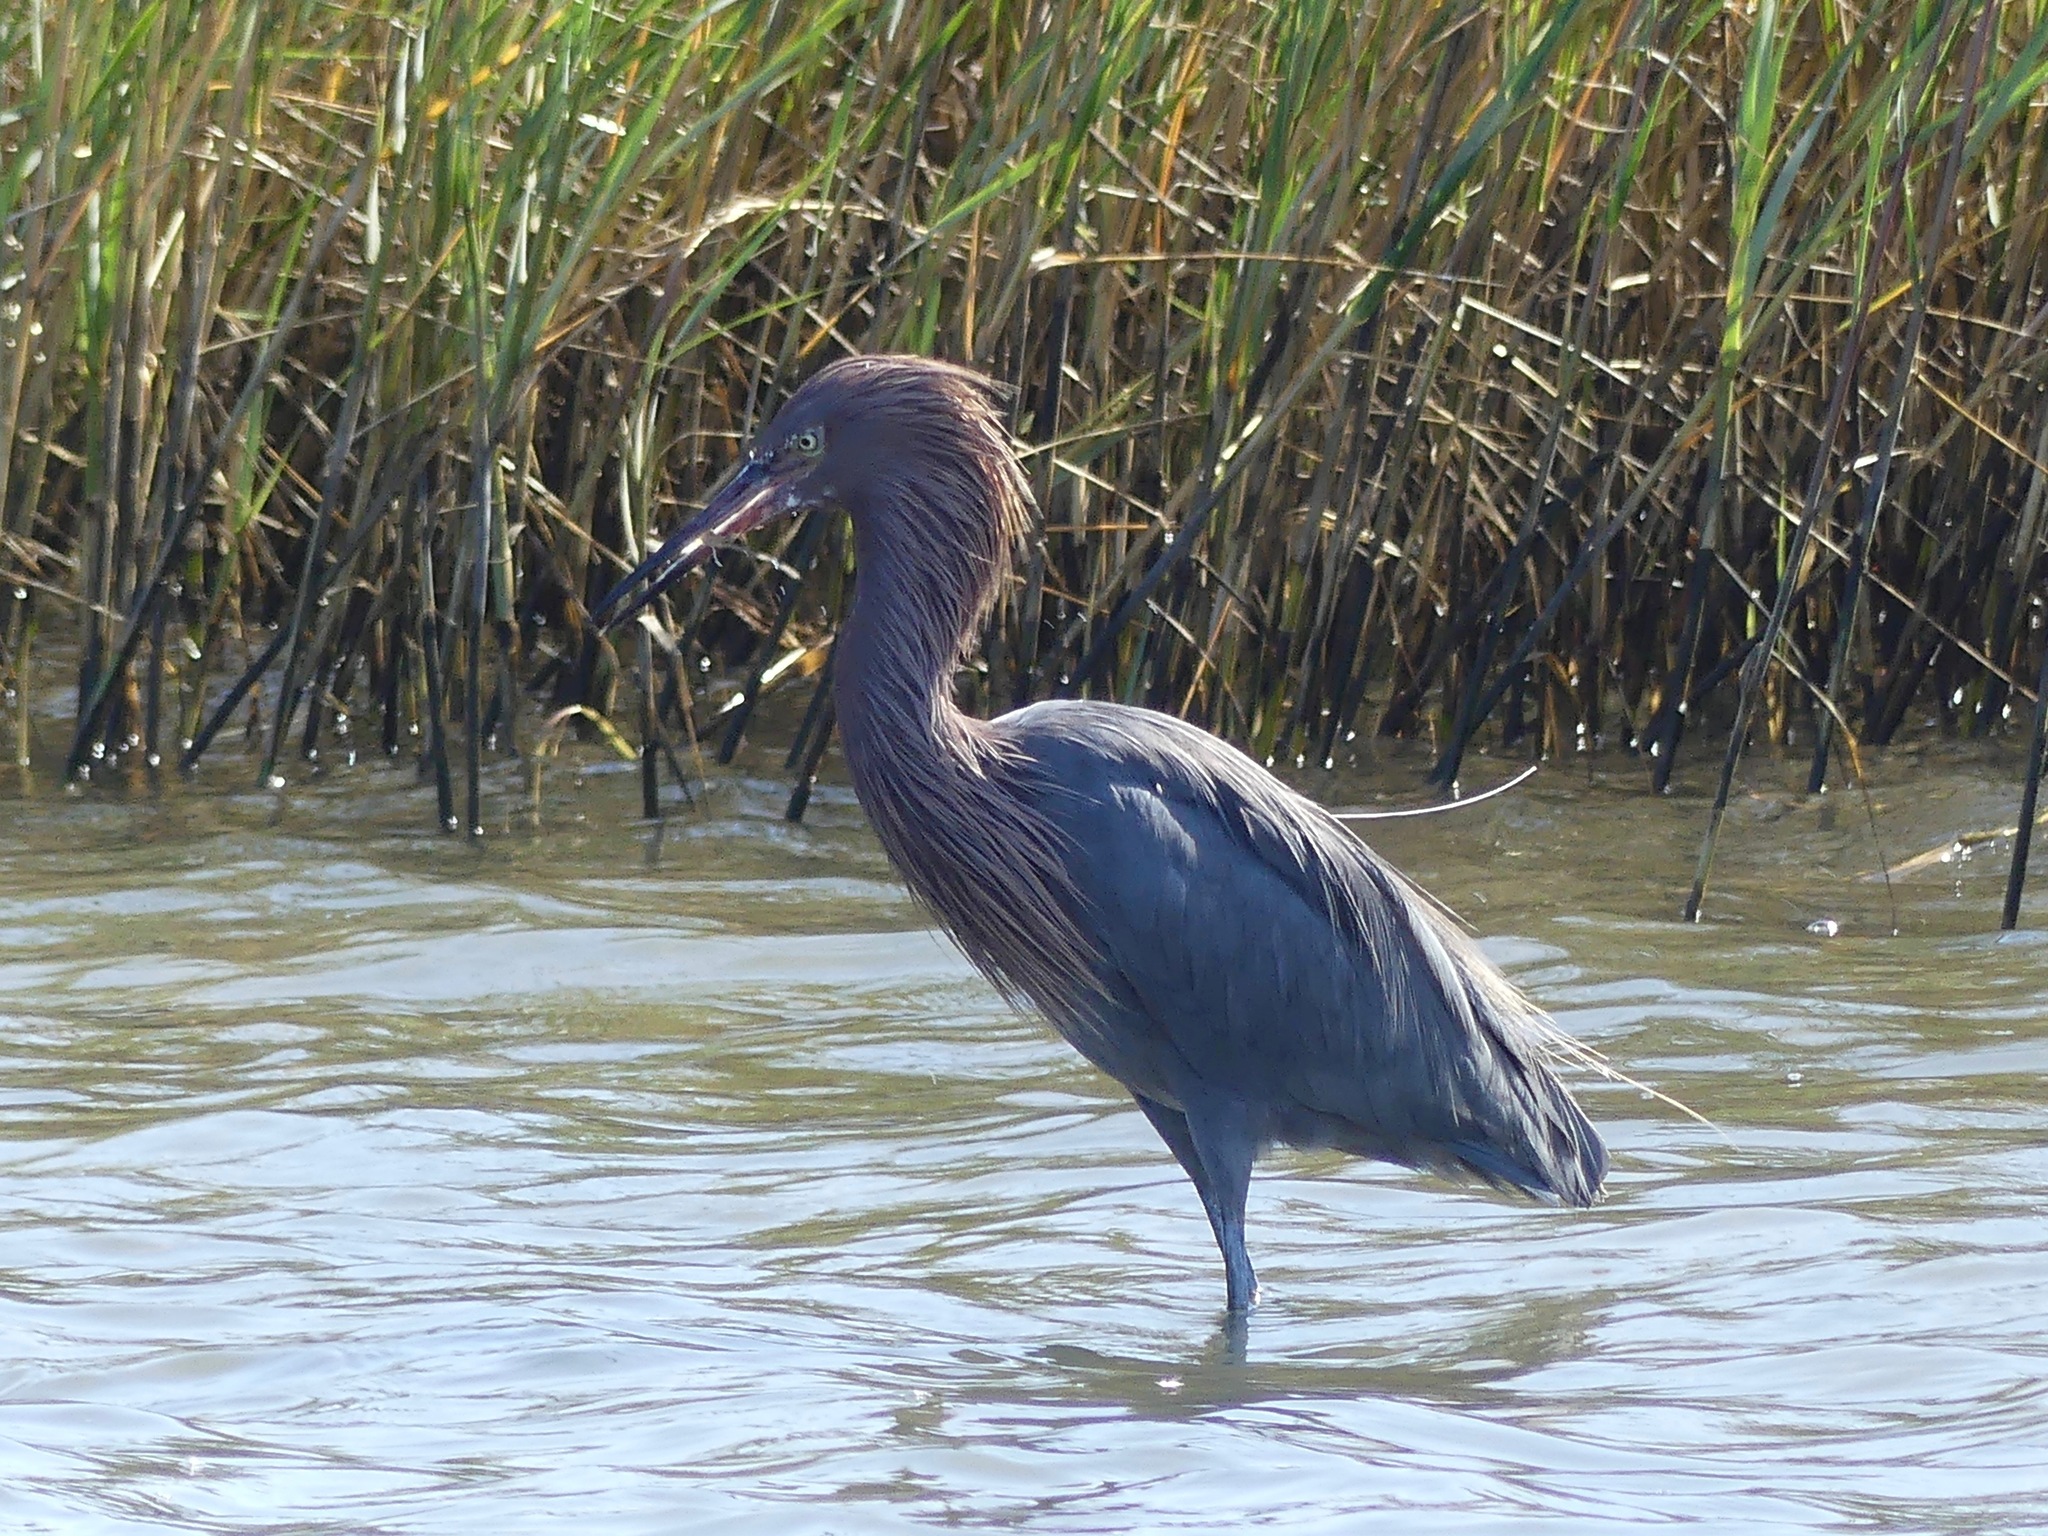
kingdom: Animalia
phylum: Chordata
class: Aves
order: Pelecaniformes
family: Ardeidae
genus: Egretta
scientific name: Egretta rufescens
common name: Reddish egret
